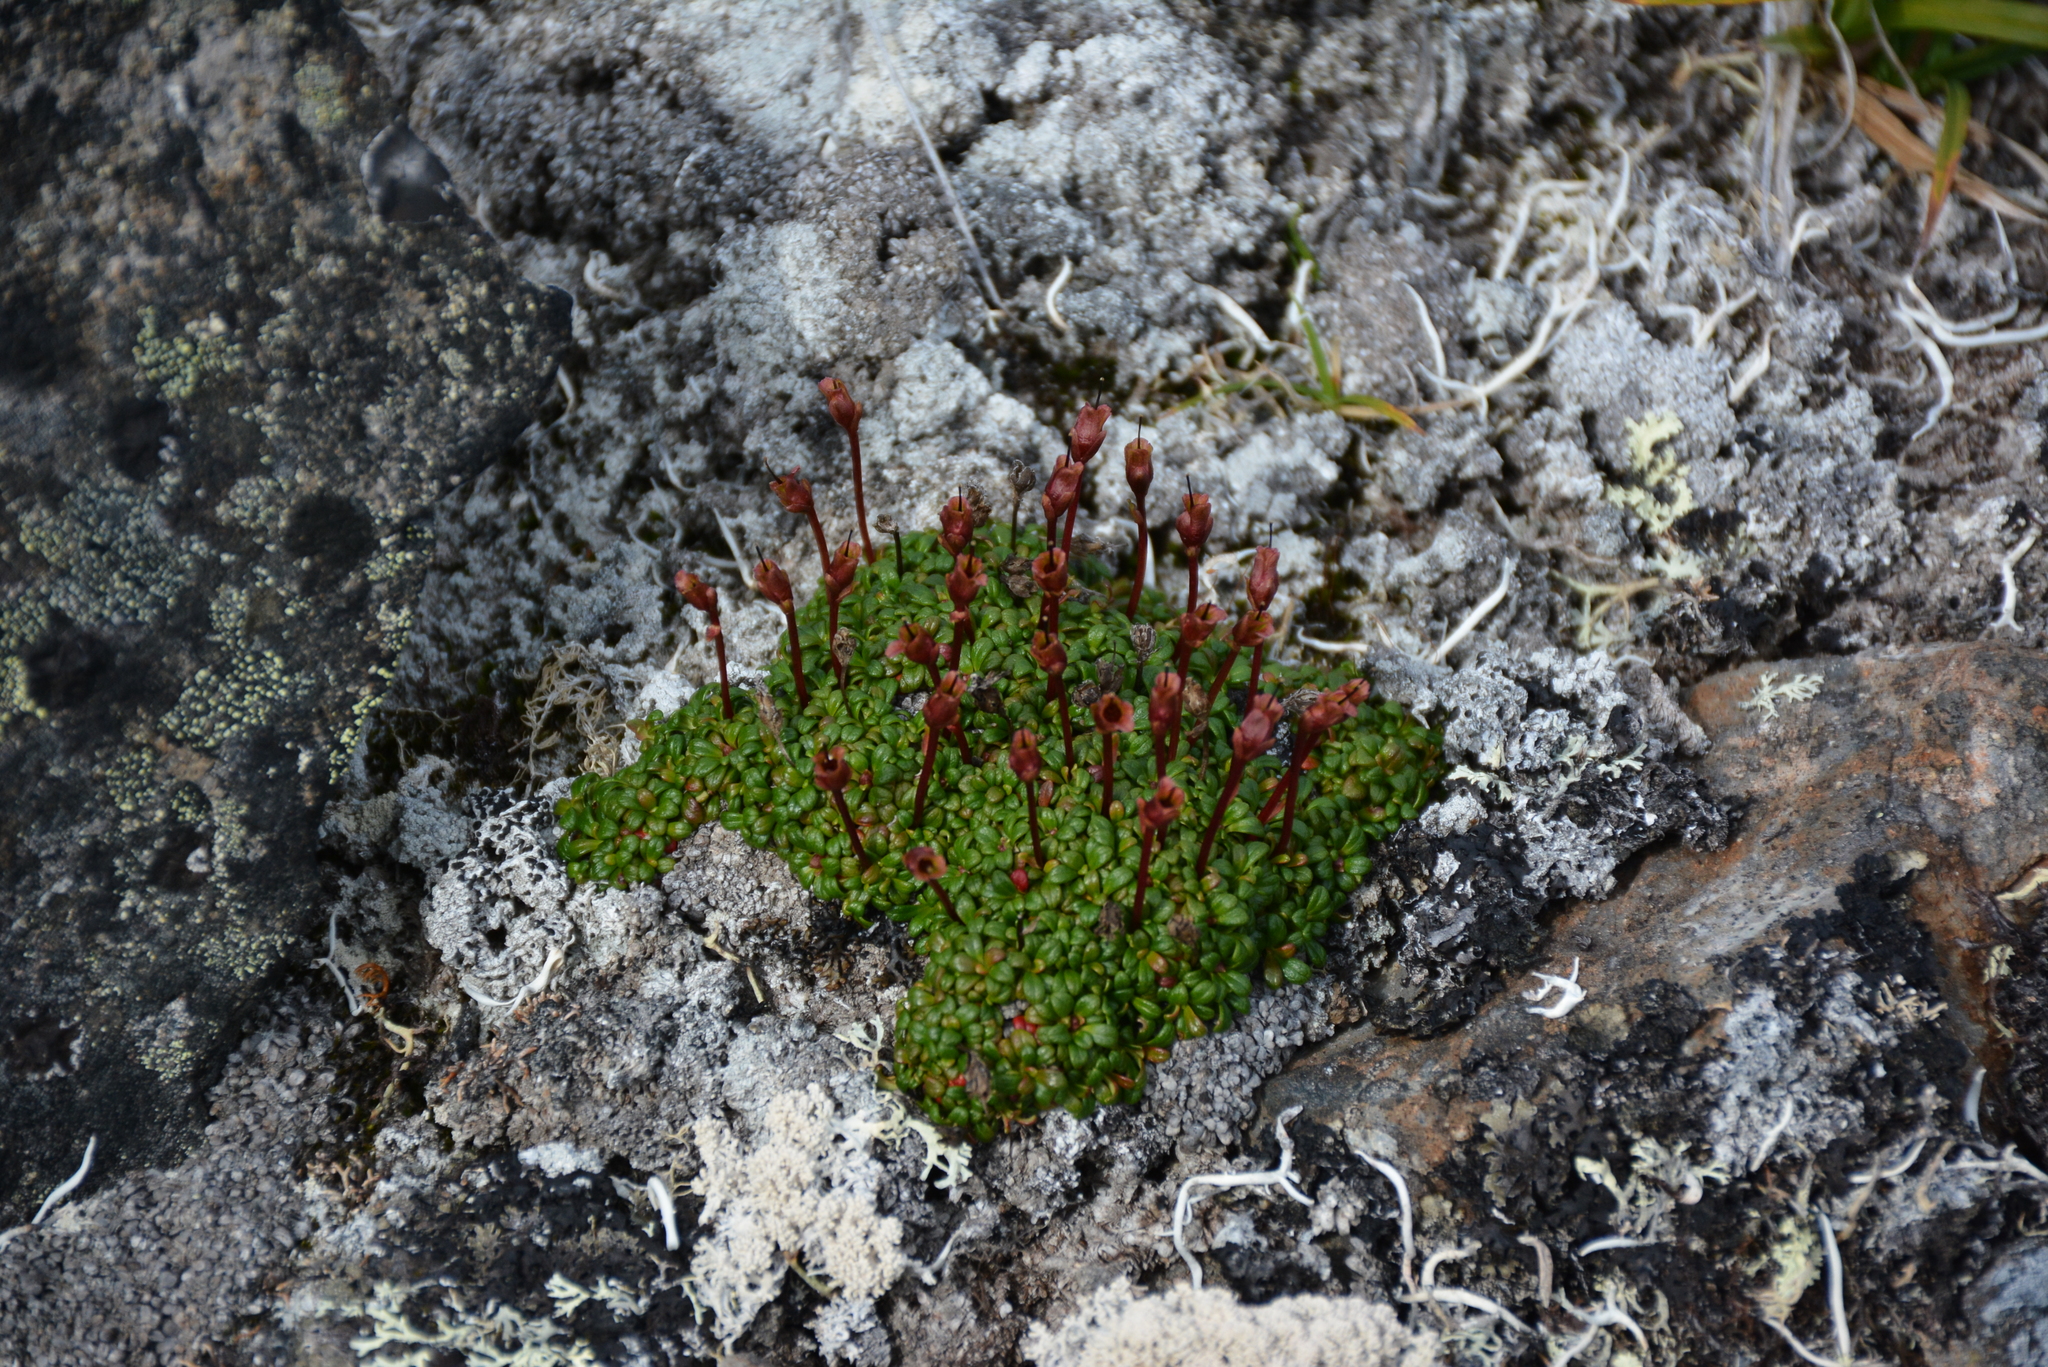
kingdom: Plantae
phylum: Tracheophyta
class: Magnoliopsida
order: Ericales
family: Diapensiaceae
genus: Diapensia
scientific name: Diapensia obovata
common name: Alaska diapensia
